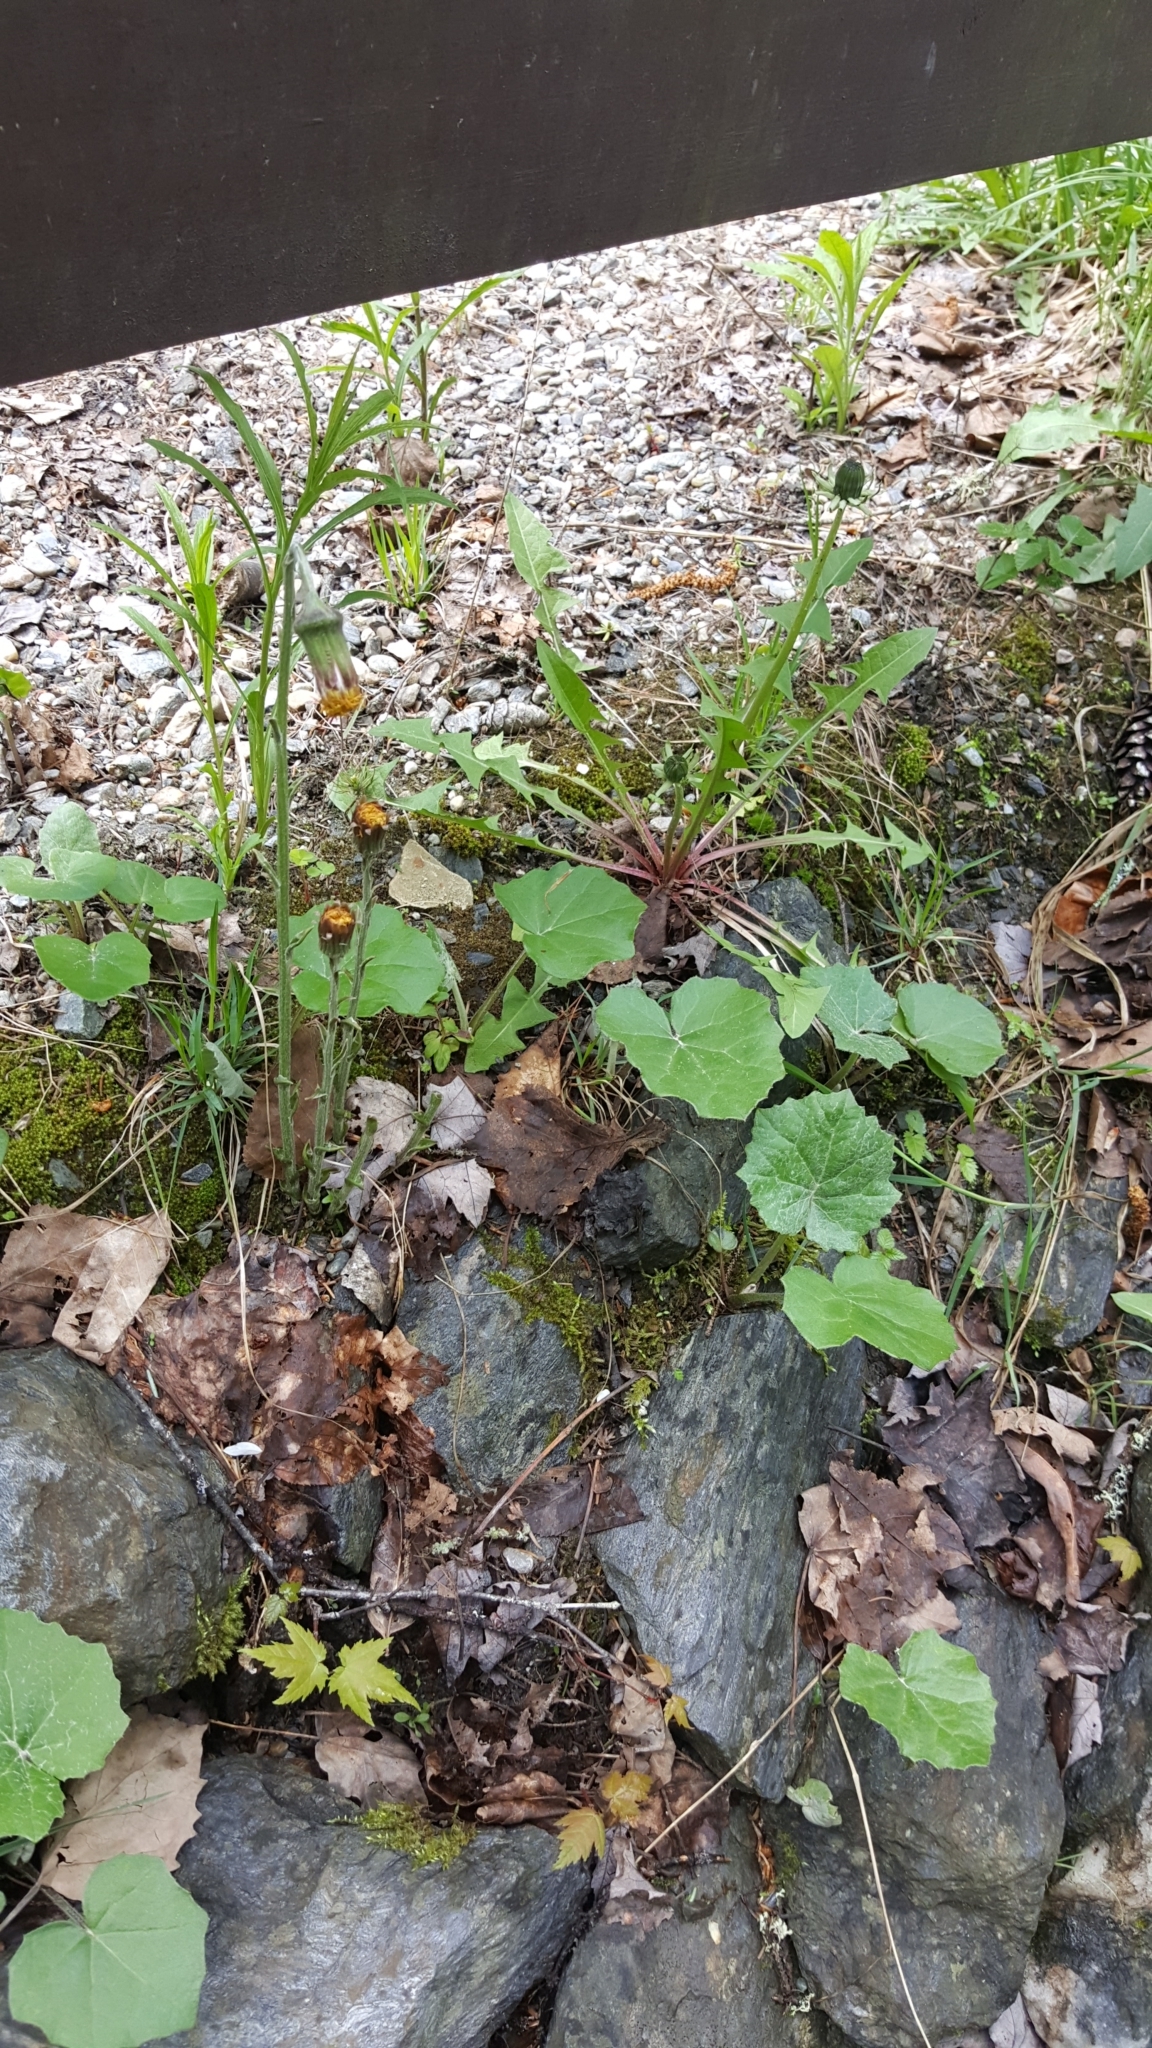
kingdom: Plantae
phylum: Tracheophyta
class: Magnoliopsida
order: Asterales
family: Asteraceae
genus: Tussilago
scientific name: Tussilago farfara
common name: Coltsfoot
